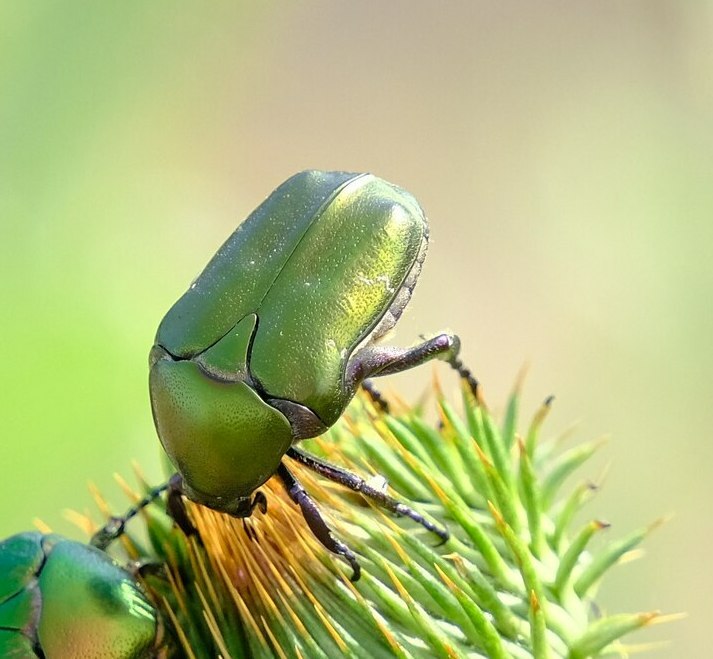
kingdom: Animalia
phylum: Arthropoda
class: Insecta
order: Coleoptera
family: Scarabaeidae
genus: Protaetia
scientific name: Protaetia cuprea
